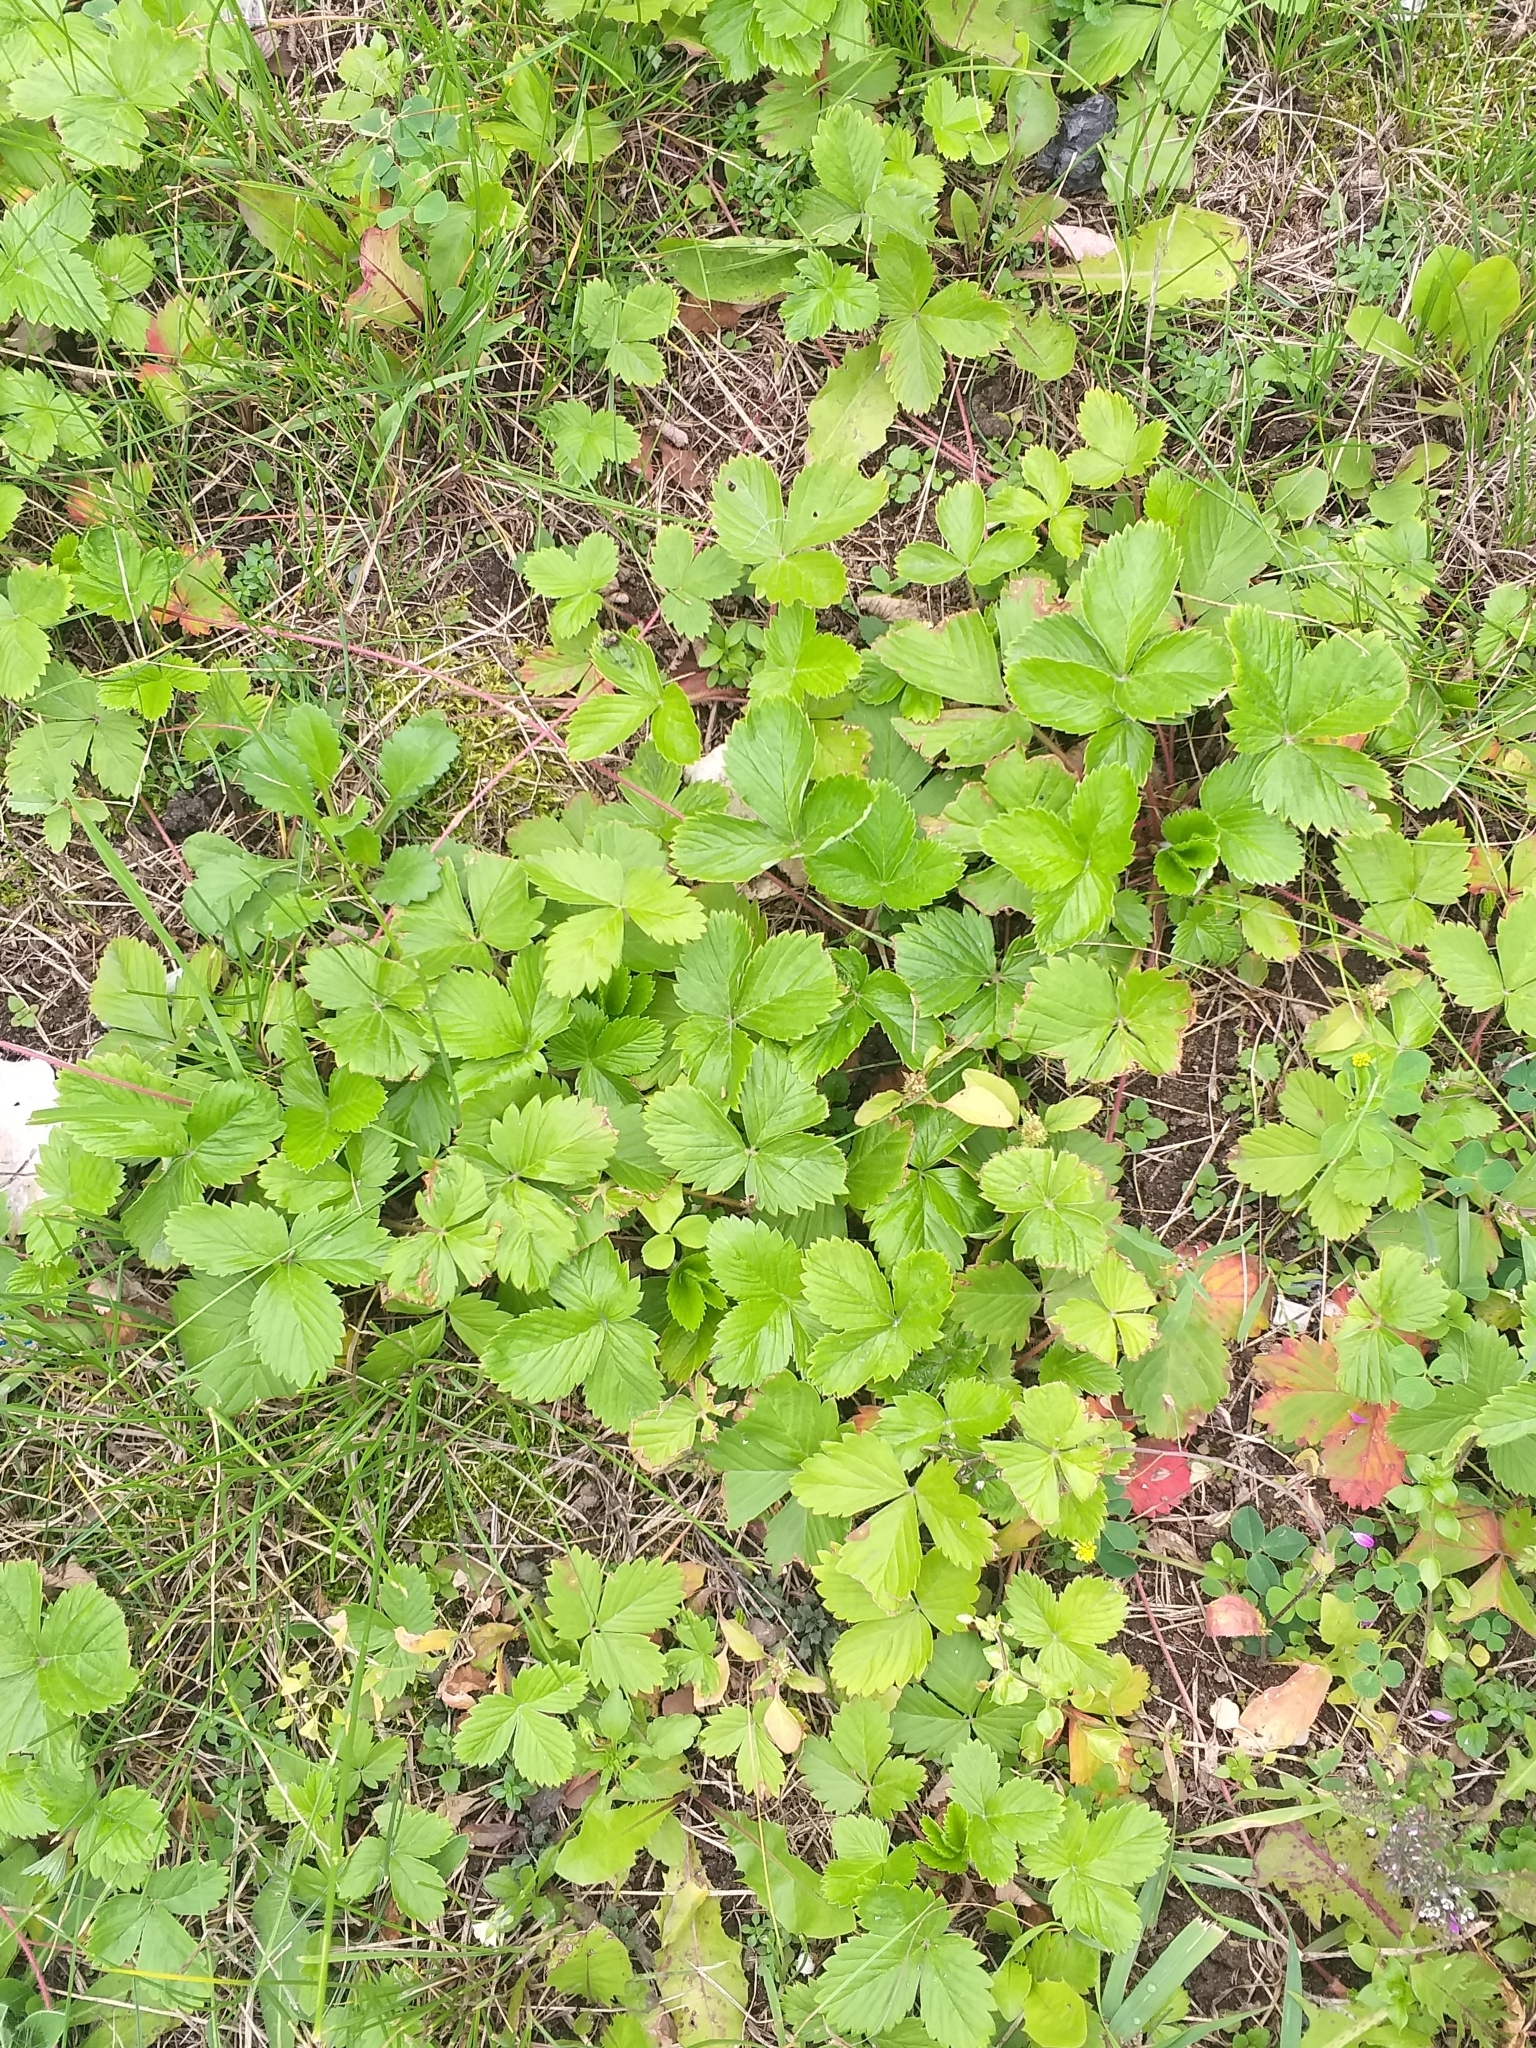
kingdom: Plantae
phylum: Tracheophyta
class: Magnoliopsida
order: Rosales
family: Rosaceae
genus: Fragaria
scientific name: Fragaria ananassa
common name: Garden strawberry
